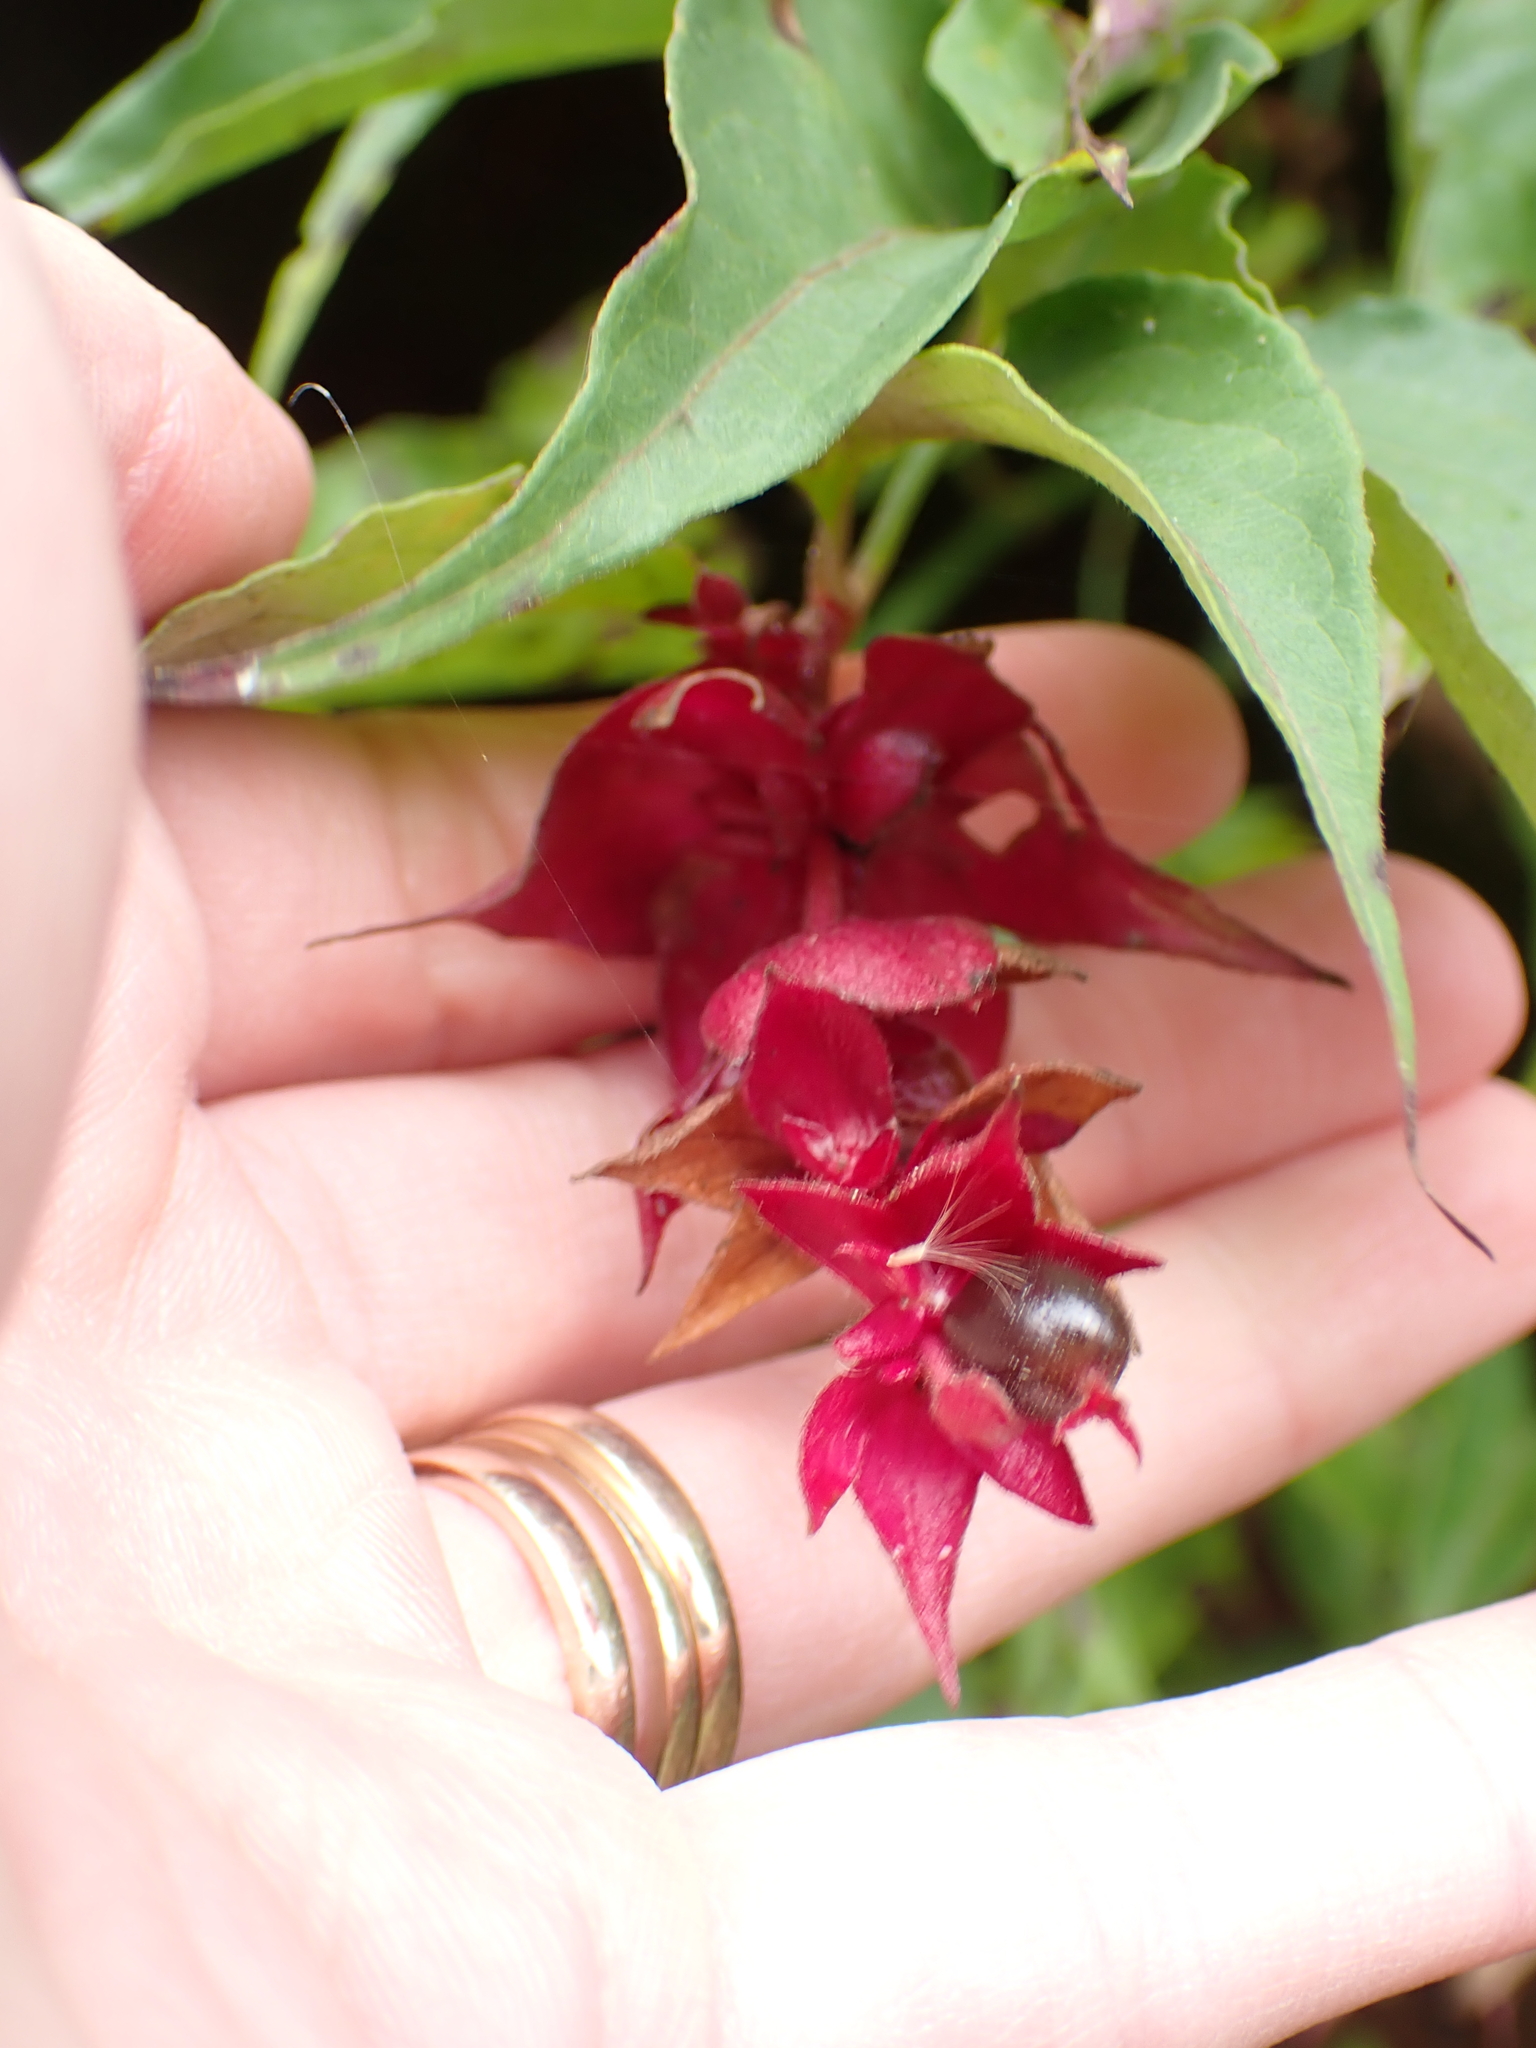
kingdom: Plantae
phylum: Tracheophyta
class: Magnoliopsida
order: Dipsacales
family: Caprifoliaceae
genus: Leycesteria
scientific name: Leycesteria formosa
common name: Himalayan honeysuckle
